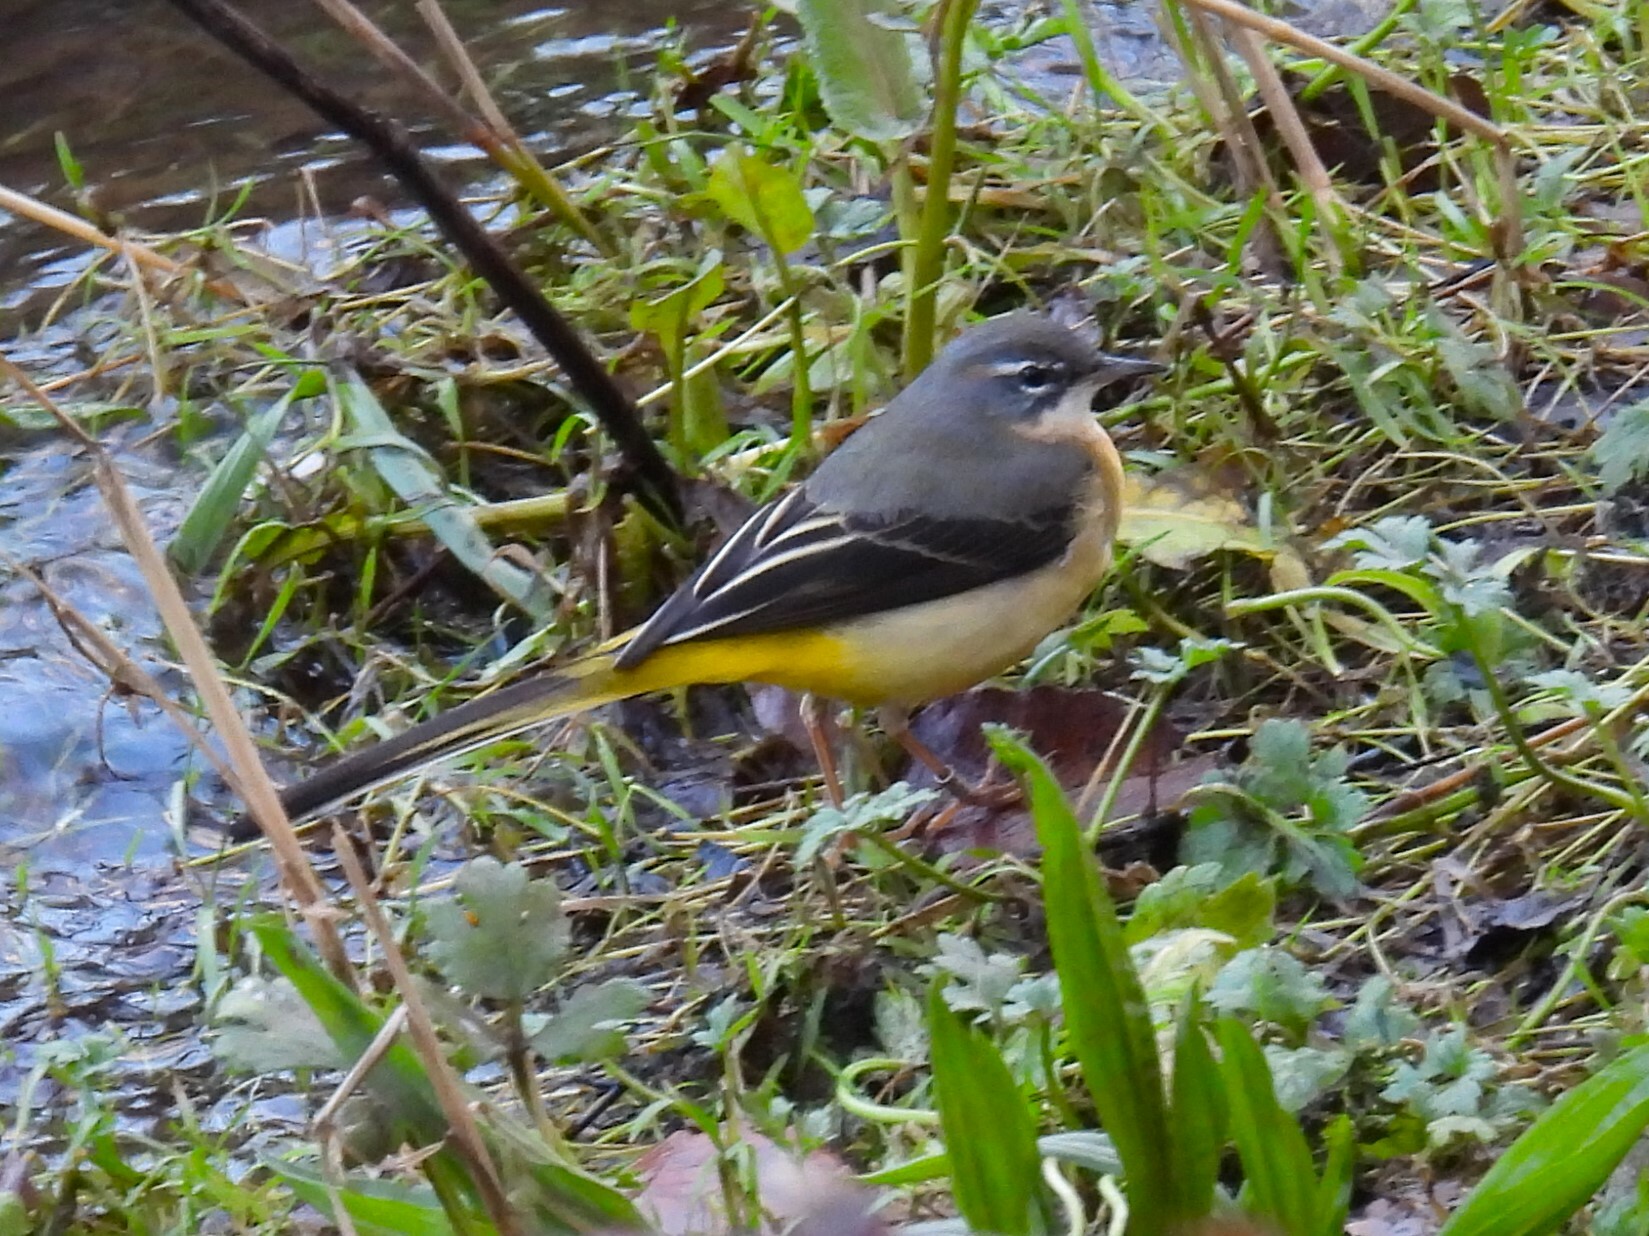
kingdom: Animalia
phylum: Chordata
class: Aves
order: Passeriformes
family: Motacillidae
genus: Motacilla
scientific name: Motacilla cinerea
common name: Grey wagtail
